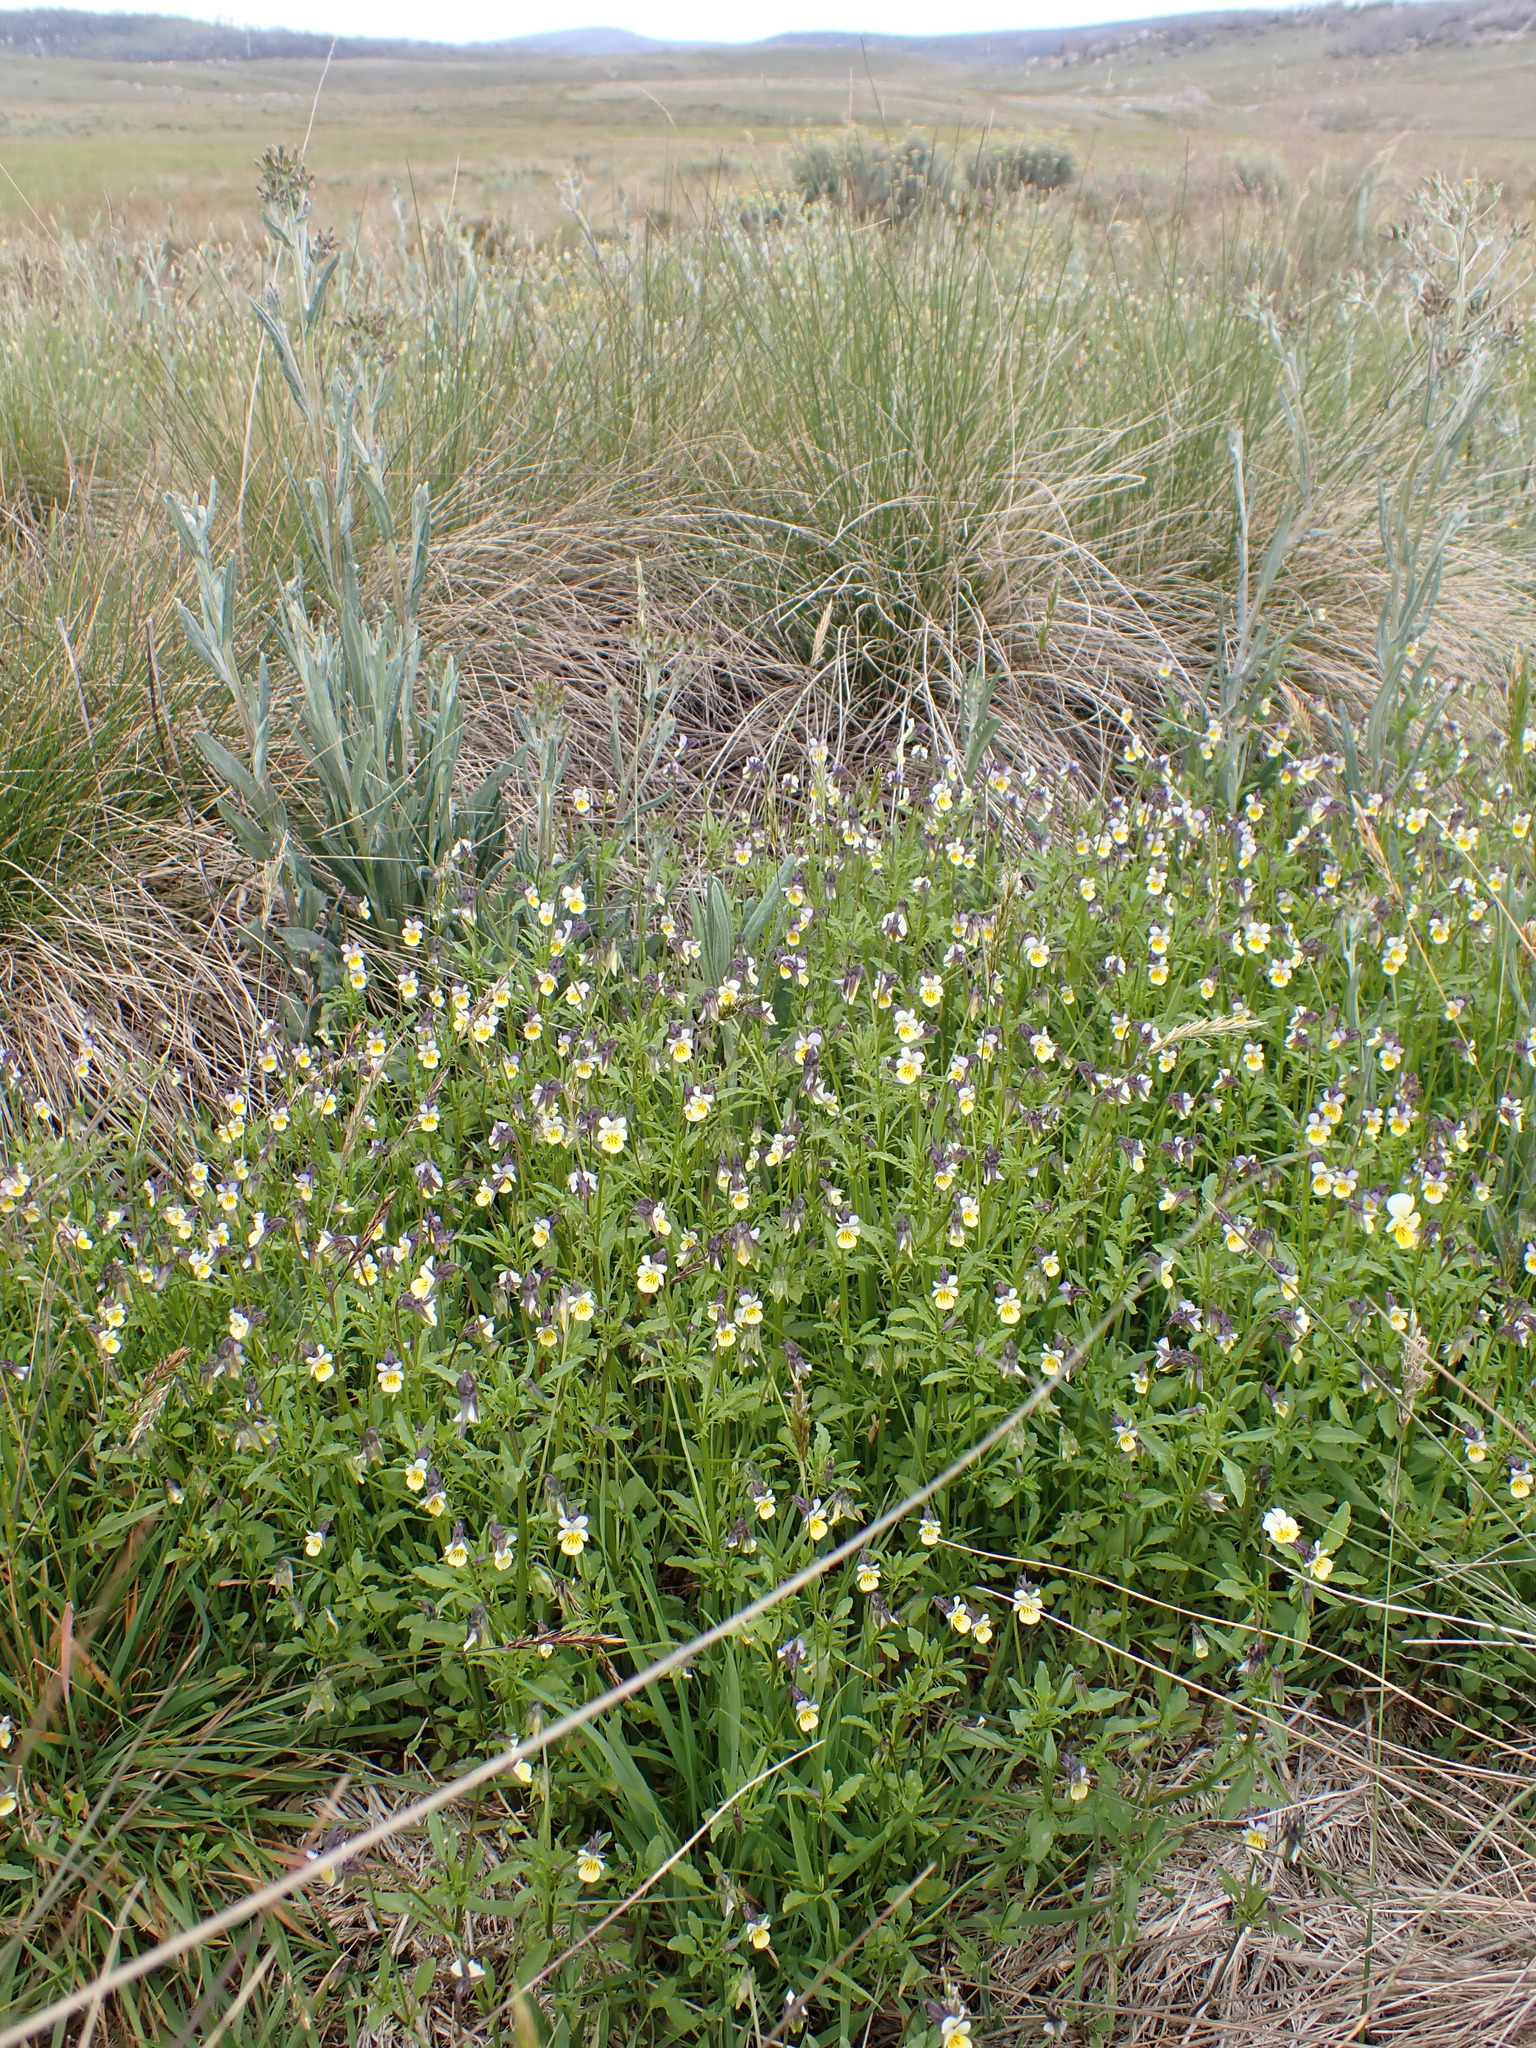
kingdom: Plantae
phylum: Tracheophyta
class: Magnoliopsida
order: Malpighiales
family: Violaceae
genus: Viola
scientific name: Viola arvensis
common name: Field pansy
